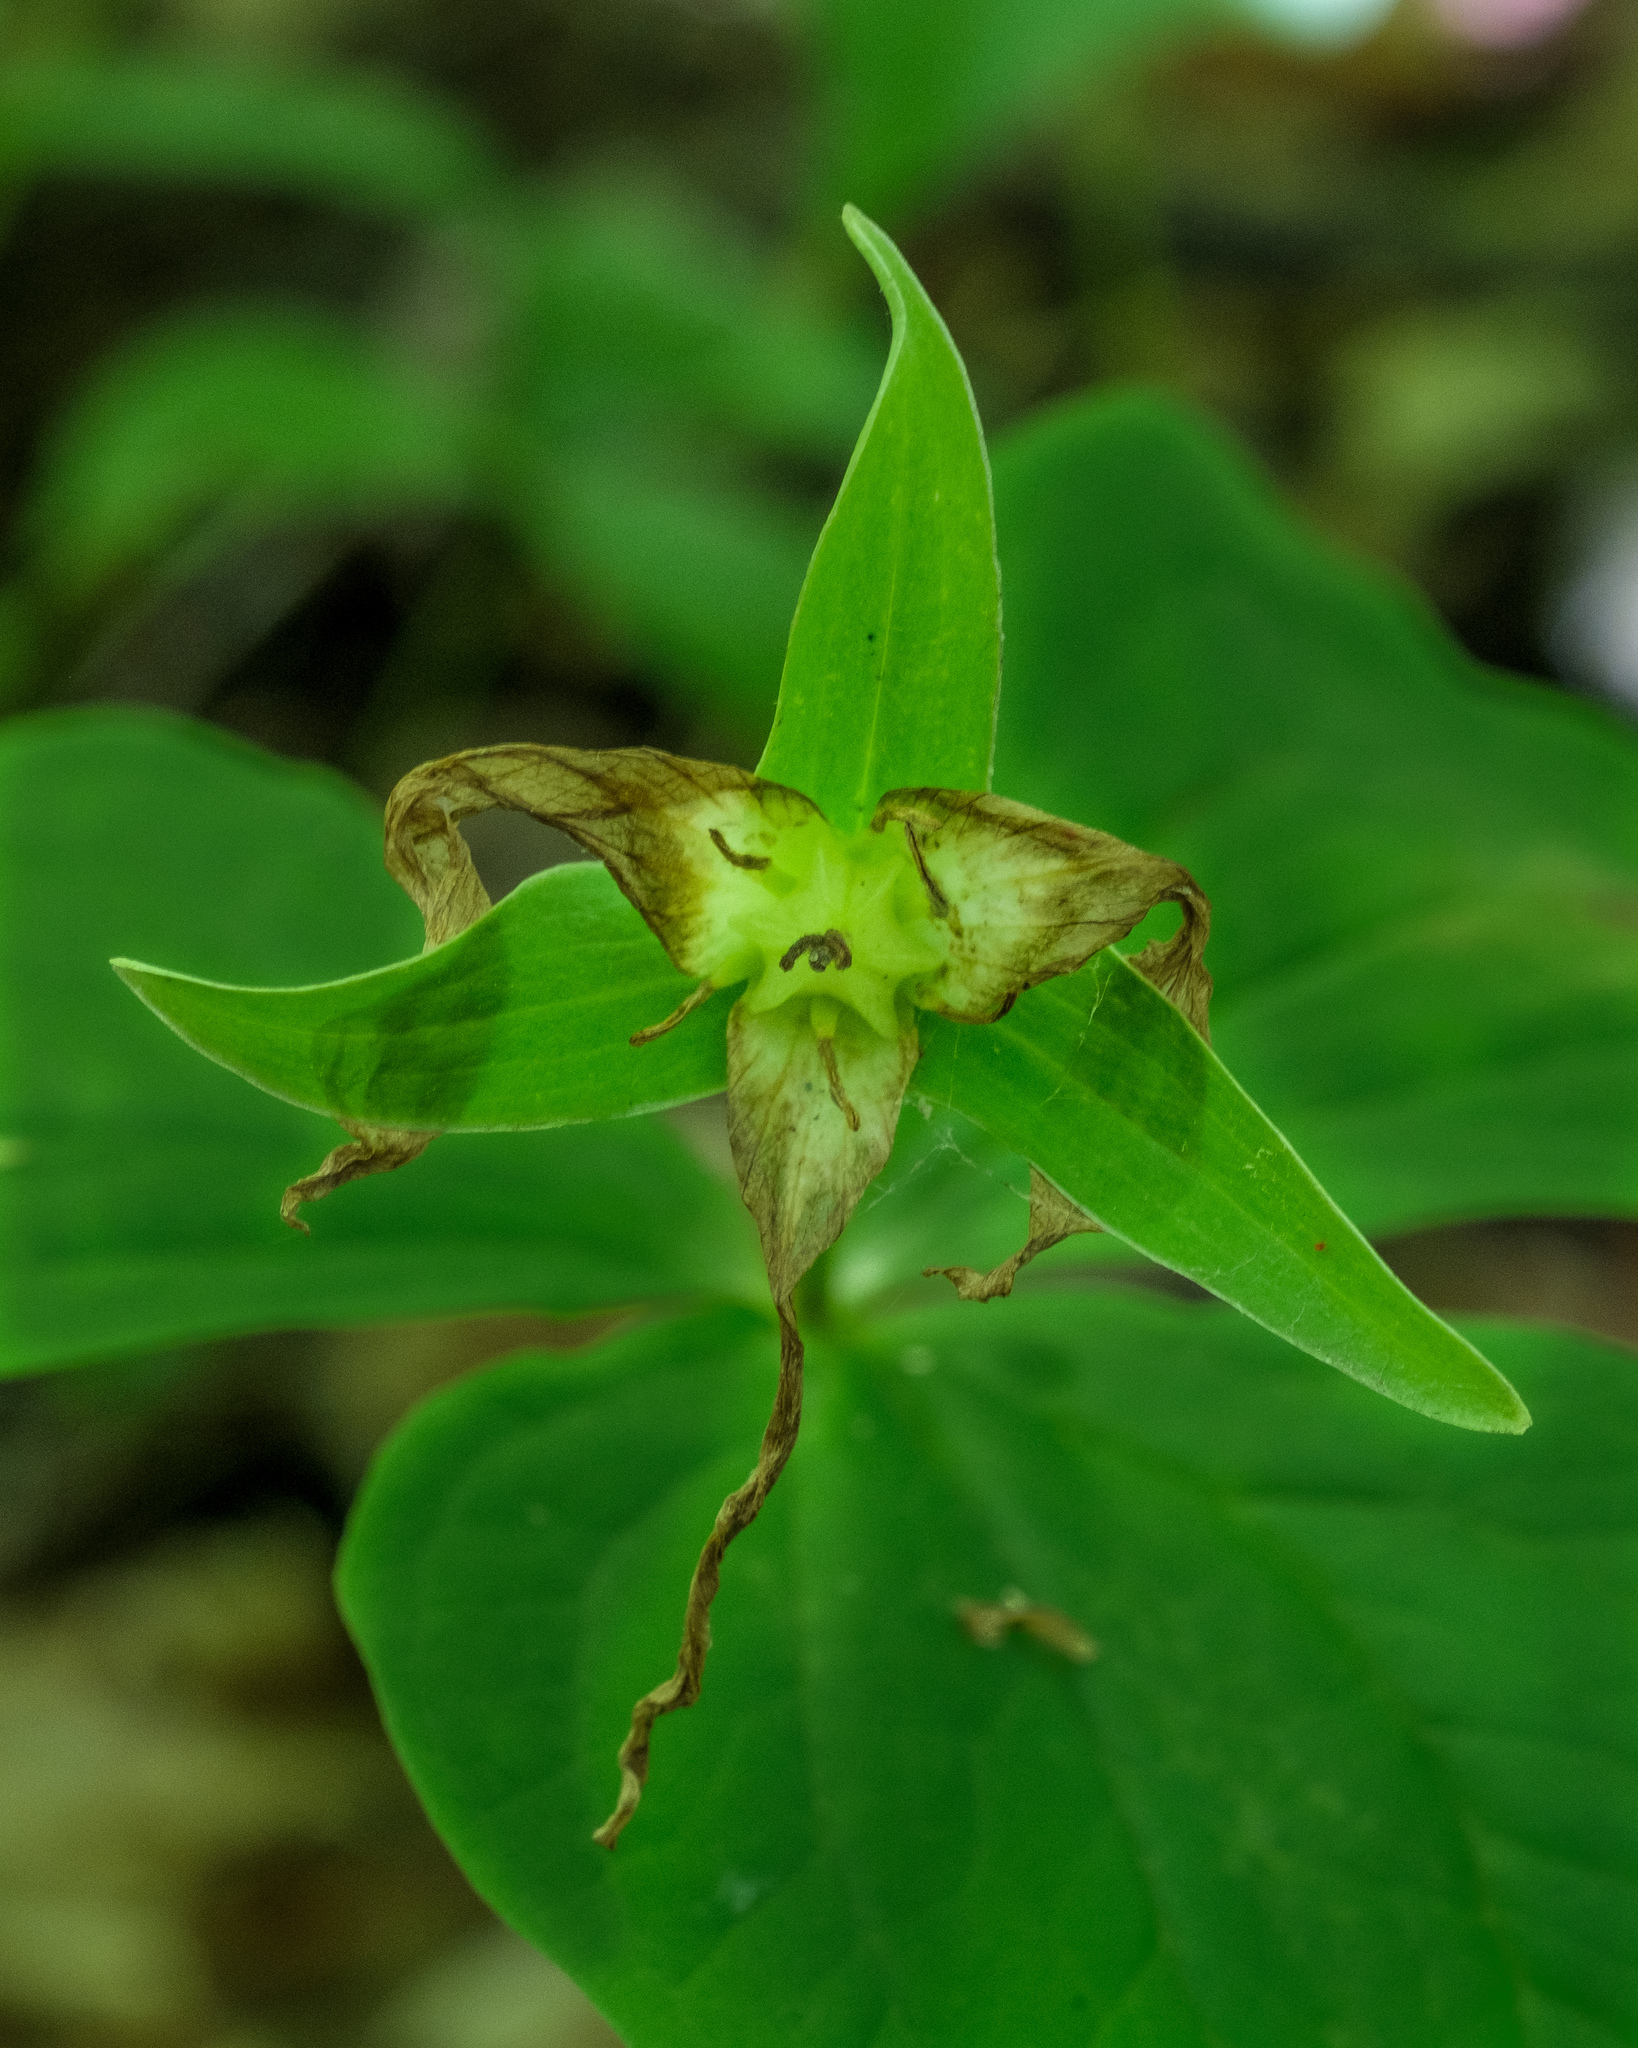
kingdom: Plantae
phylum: Tracheophyta
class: Liliopsida
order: Liliales
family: Melanthiaceae
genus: Trillium
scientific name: Trillium grandiflorum
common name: Great white trillium
